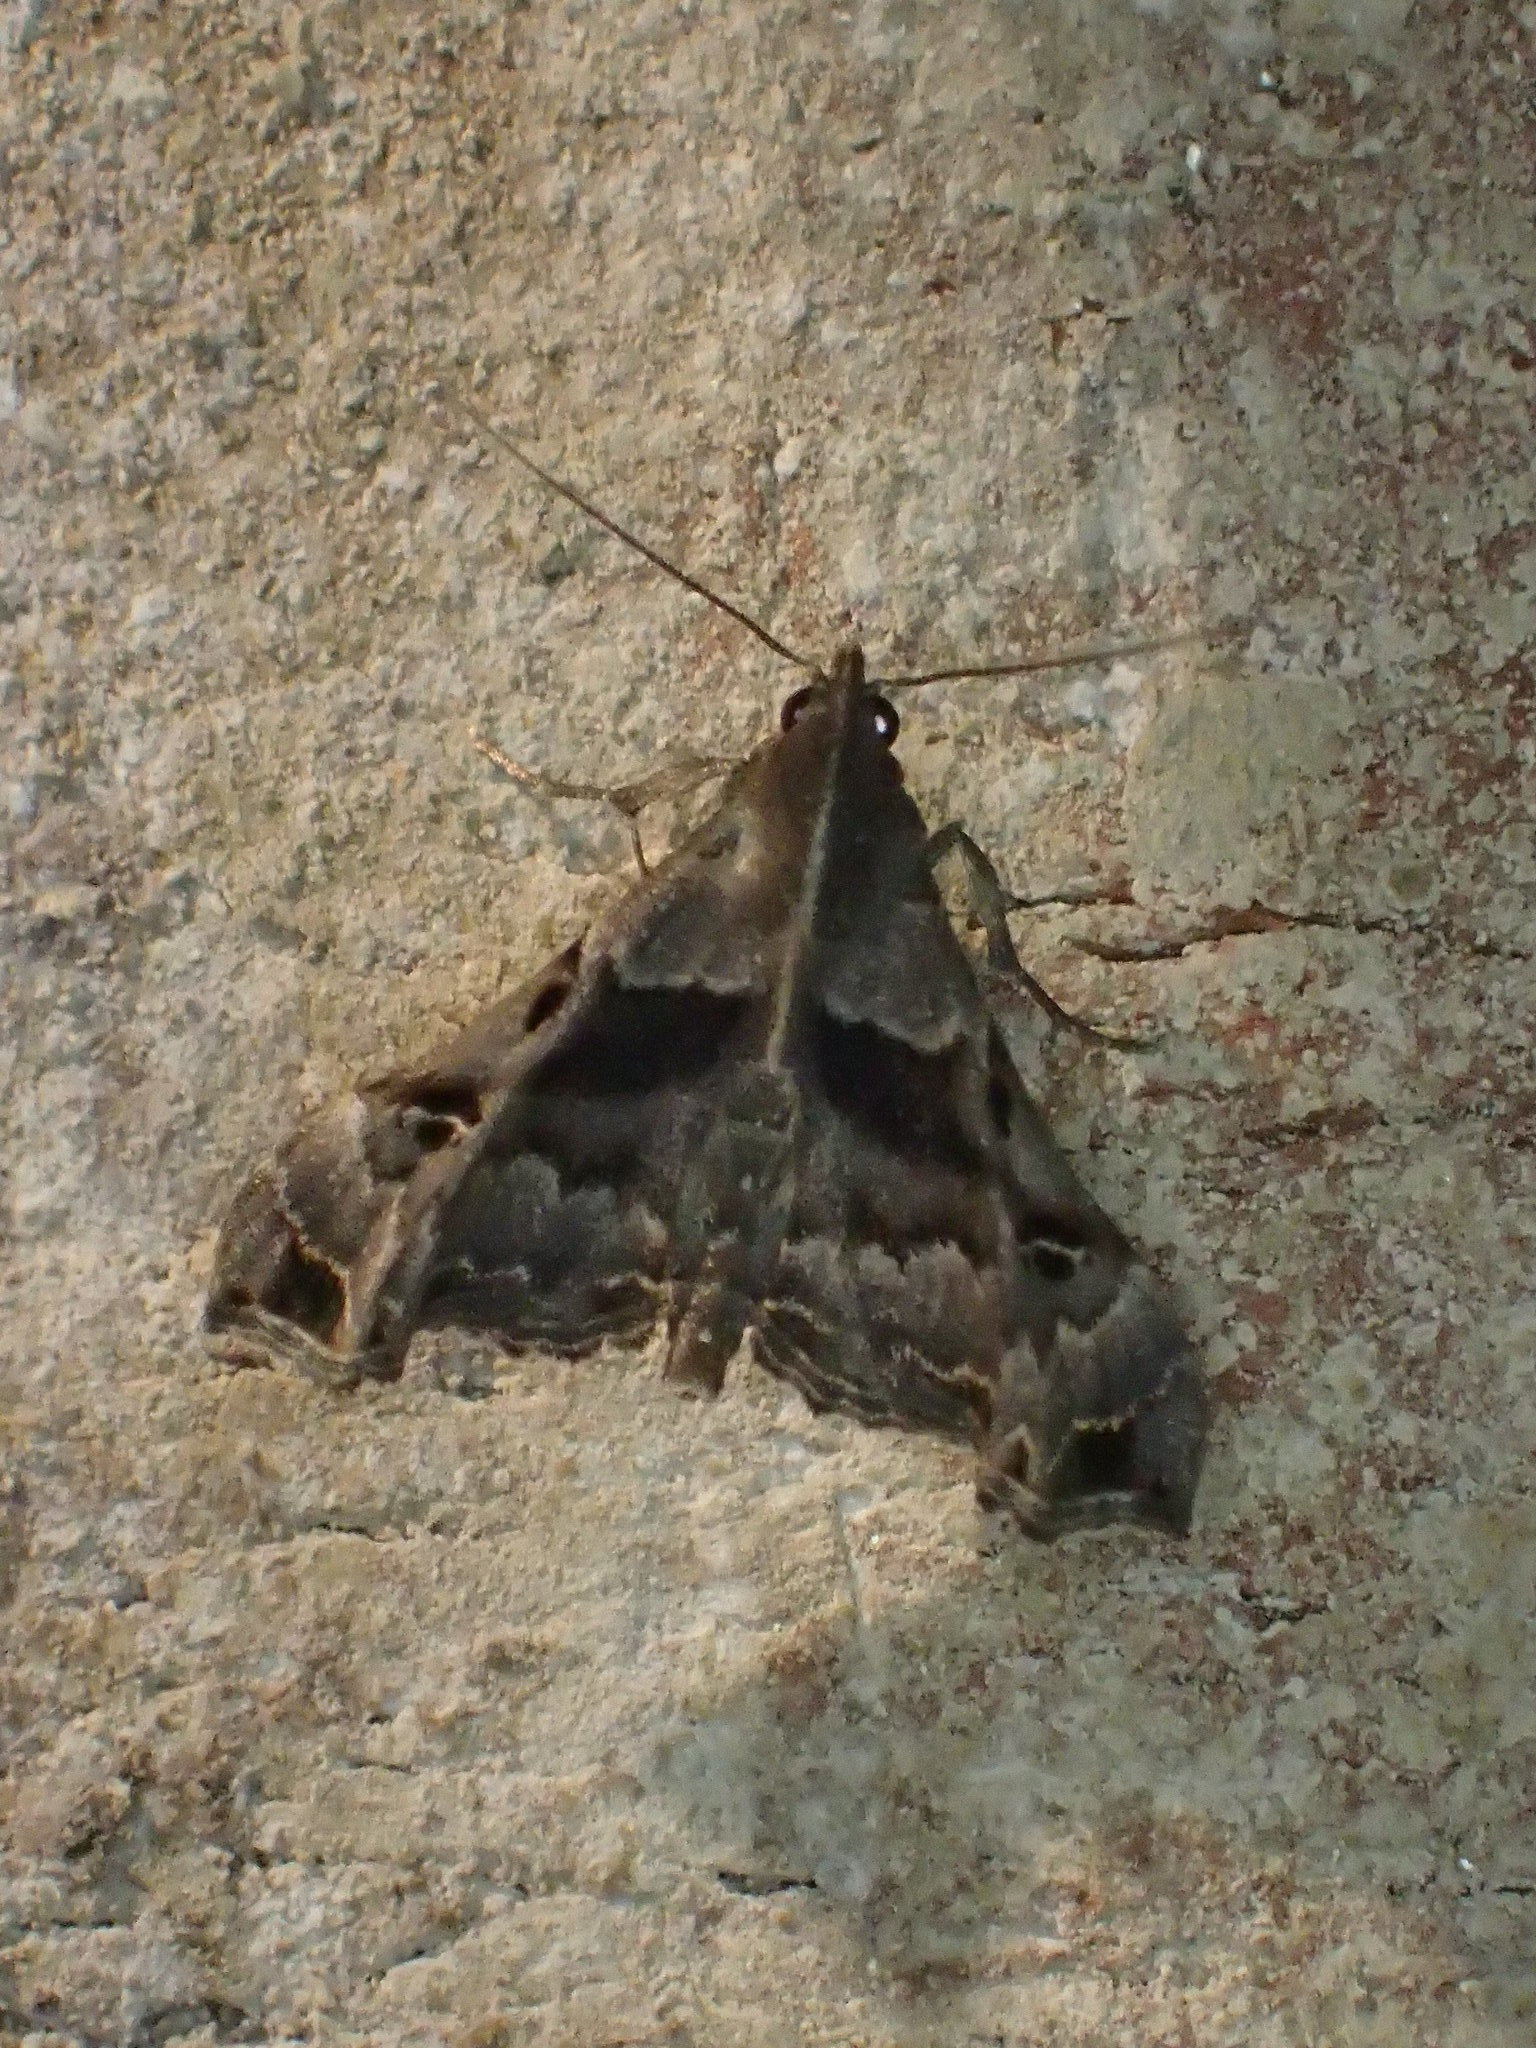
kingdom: Animalia
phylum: Arthropoda
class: Insecta
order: Lepidoptera
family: Erebidae
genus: Palthis
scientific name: Palthis asopialis
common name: Faint-spotted palthis moth
